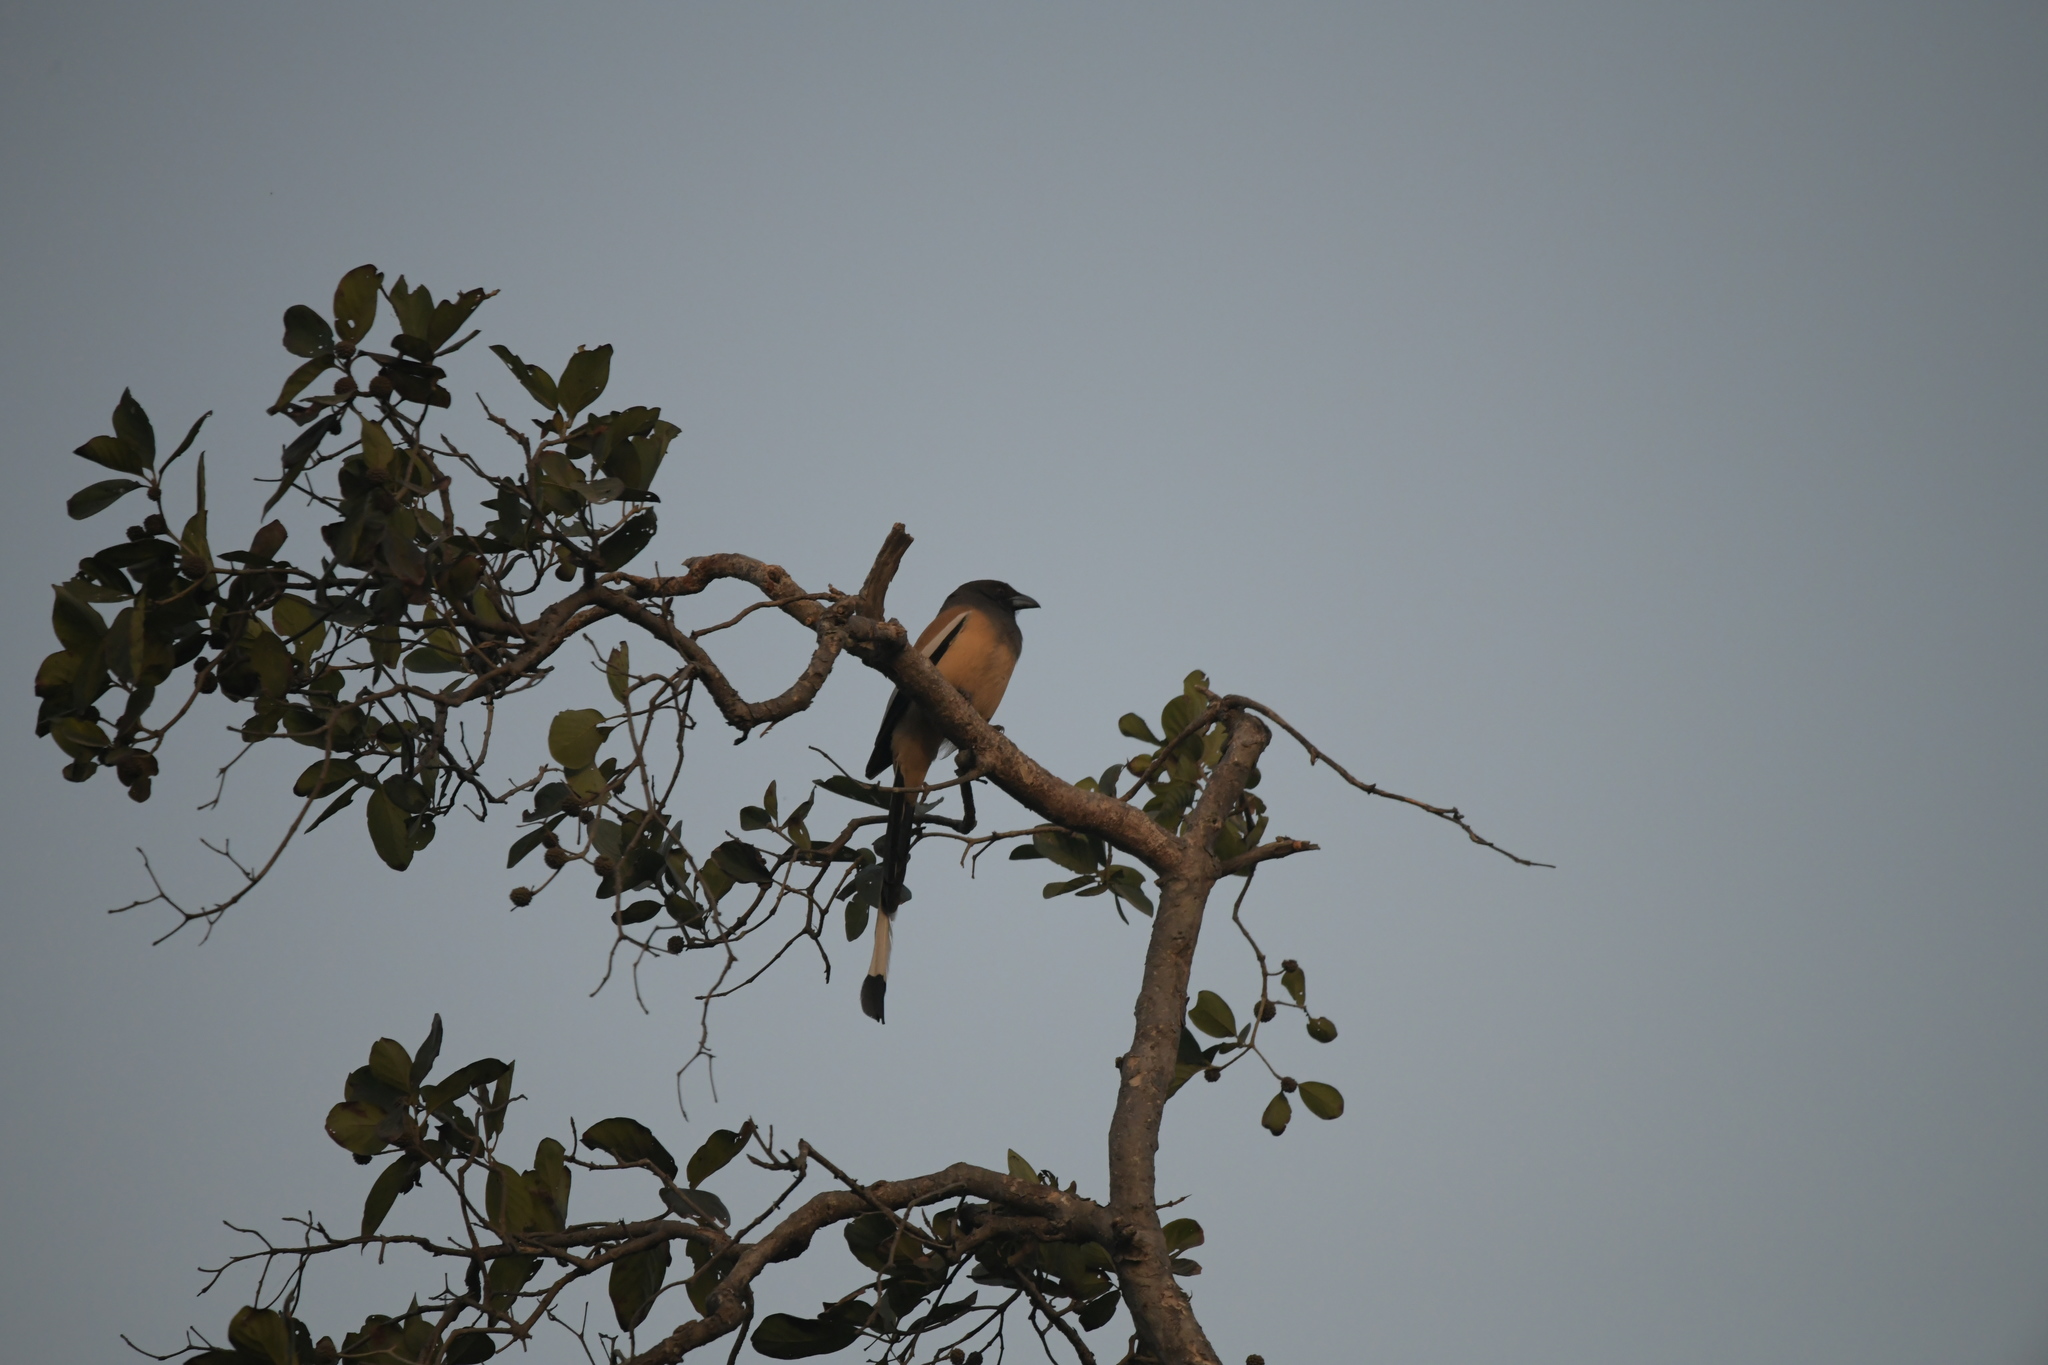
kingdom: Animalia
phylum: Chordata
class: Aves
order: Passeriformes
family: Corvidae
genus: Dendrocitta
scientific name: Dendrocitta vagabunda
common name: Rufous treepie
